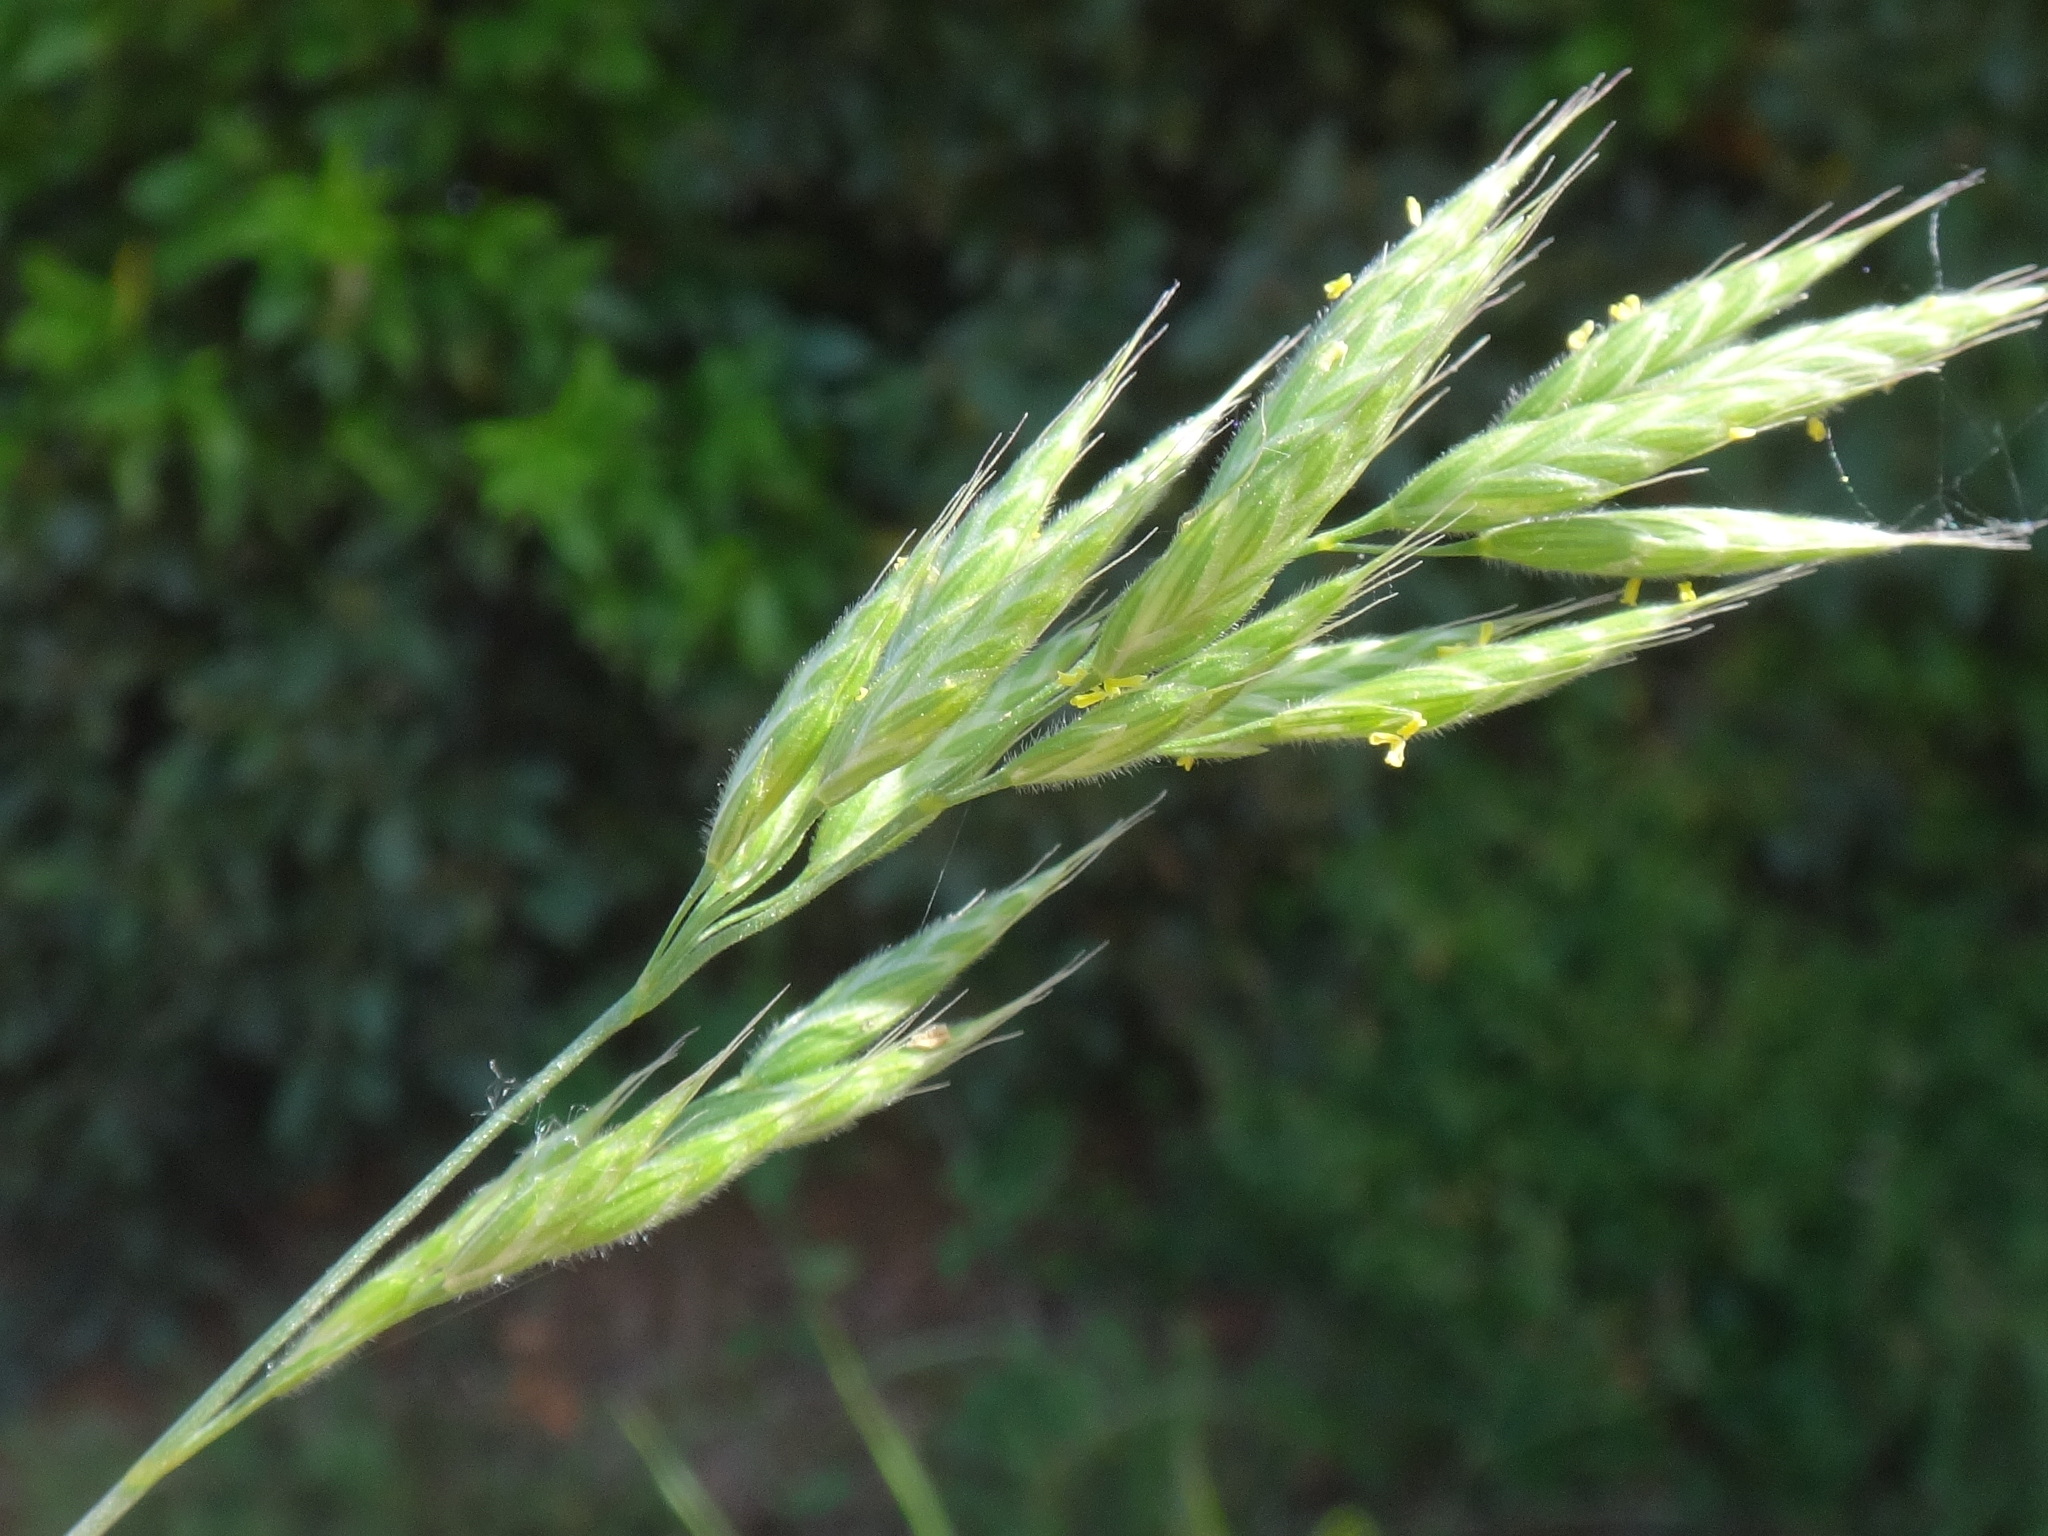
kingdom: Plantae
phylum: Tracheophyta
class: Liliopsida
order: Poales
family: Poaceae
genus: Bromus
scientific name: Bromus hordeaceus
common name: Soft brome
